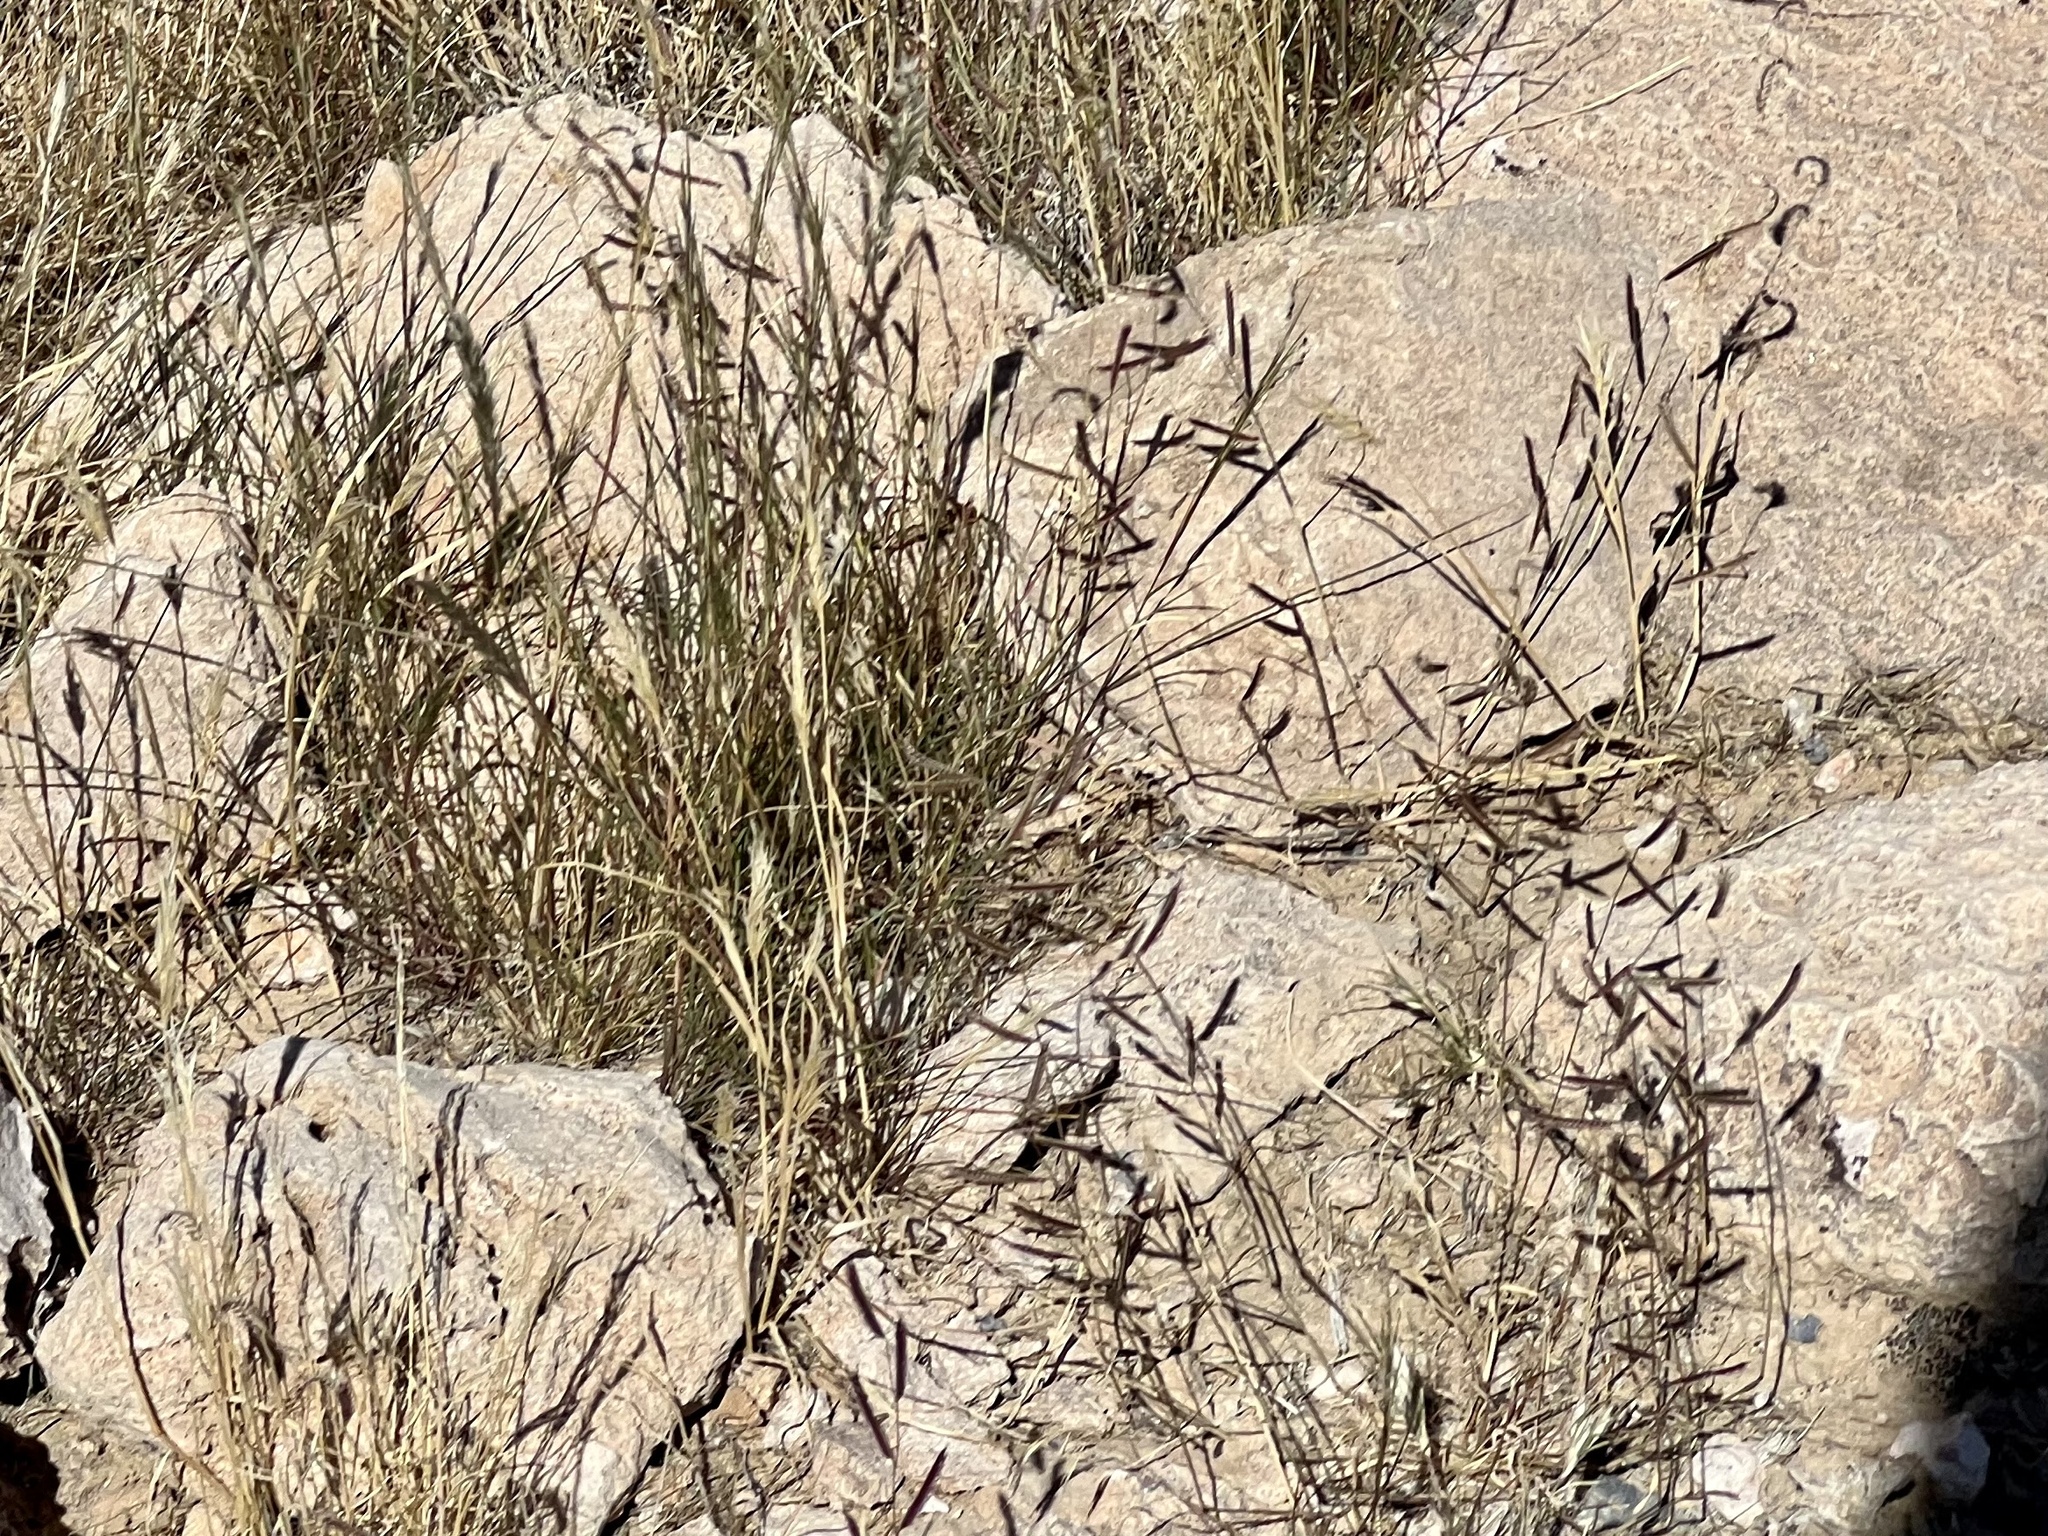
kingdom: Plantae
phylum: Tracheophyta
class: Liliopsida
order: Poales
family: Poaceae
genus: Bouteloua
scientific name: Bouteloua barbata
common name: Six-weeks grama
